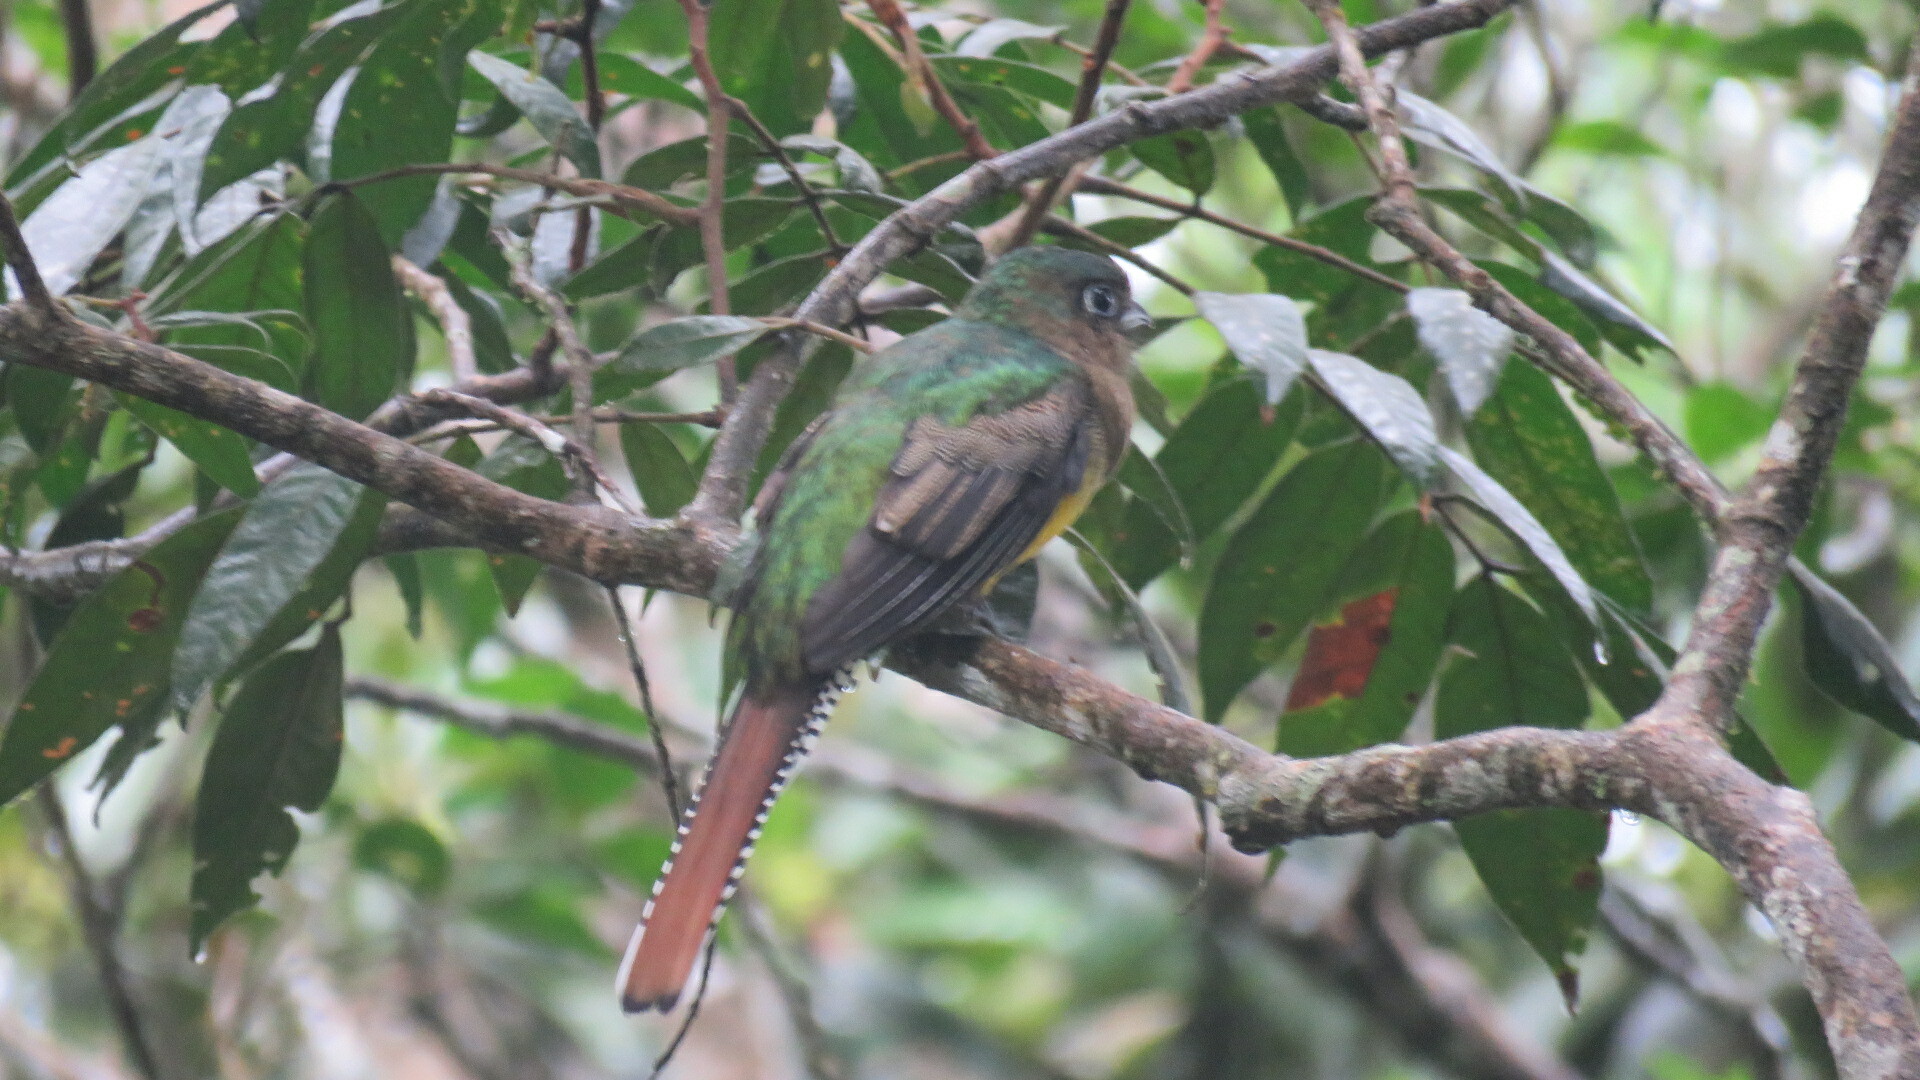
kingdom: Animalia
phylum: Chordata
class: Aves
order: Trogoniformes
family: Trogonidae
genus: Trogon
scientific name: Trogon rufus
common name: Black-throated trogon
